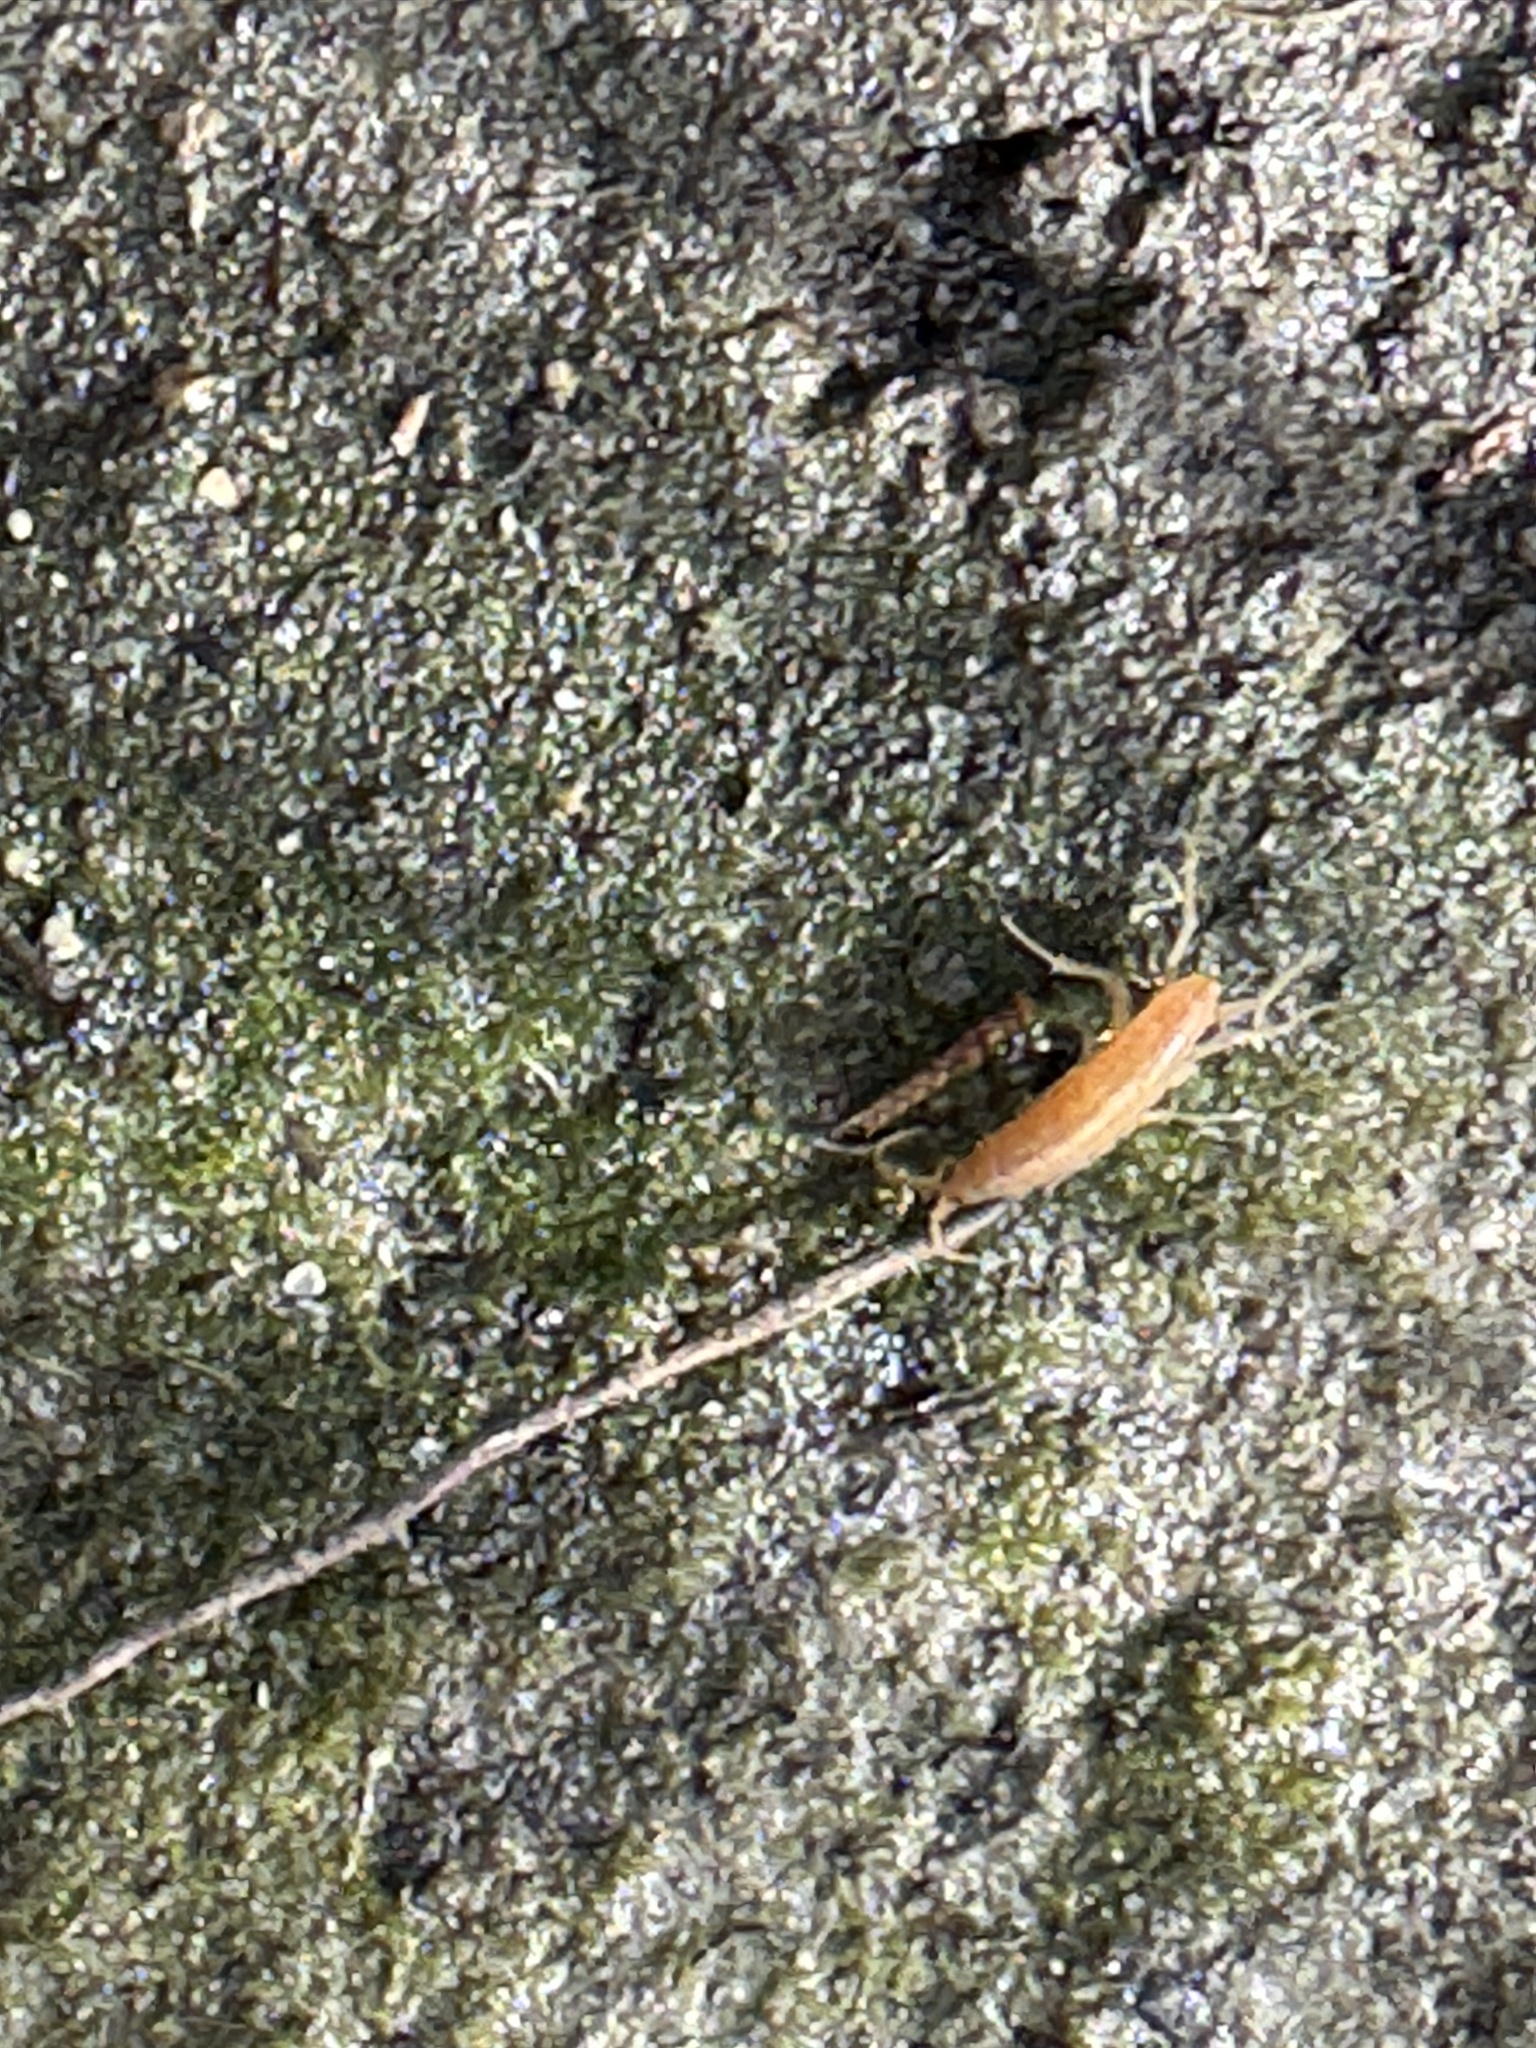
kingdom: Animalia
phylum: Arthropoda
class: Malacostraca
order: Amphipoda
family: Talitridae
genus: Platorchestia
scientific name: Platorchestia platensis
